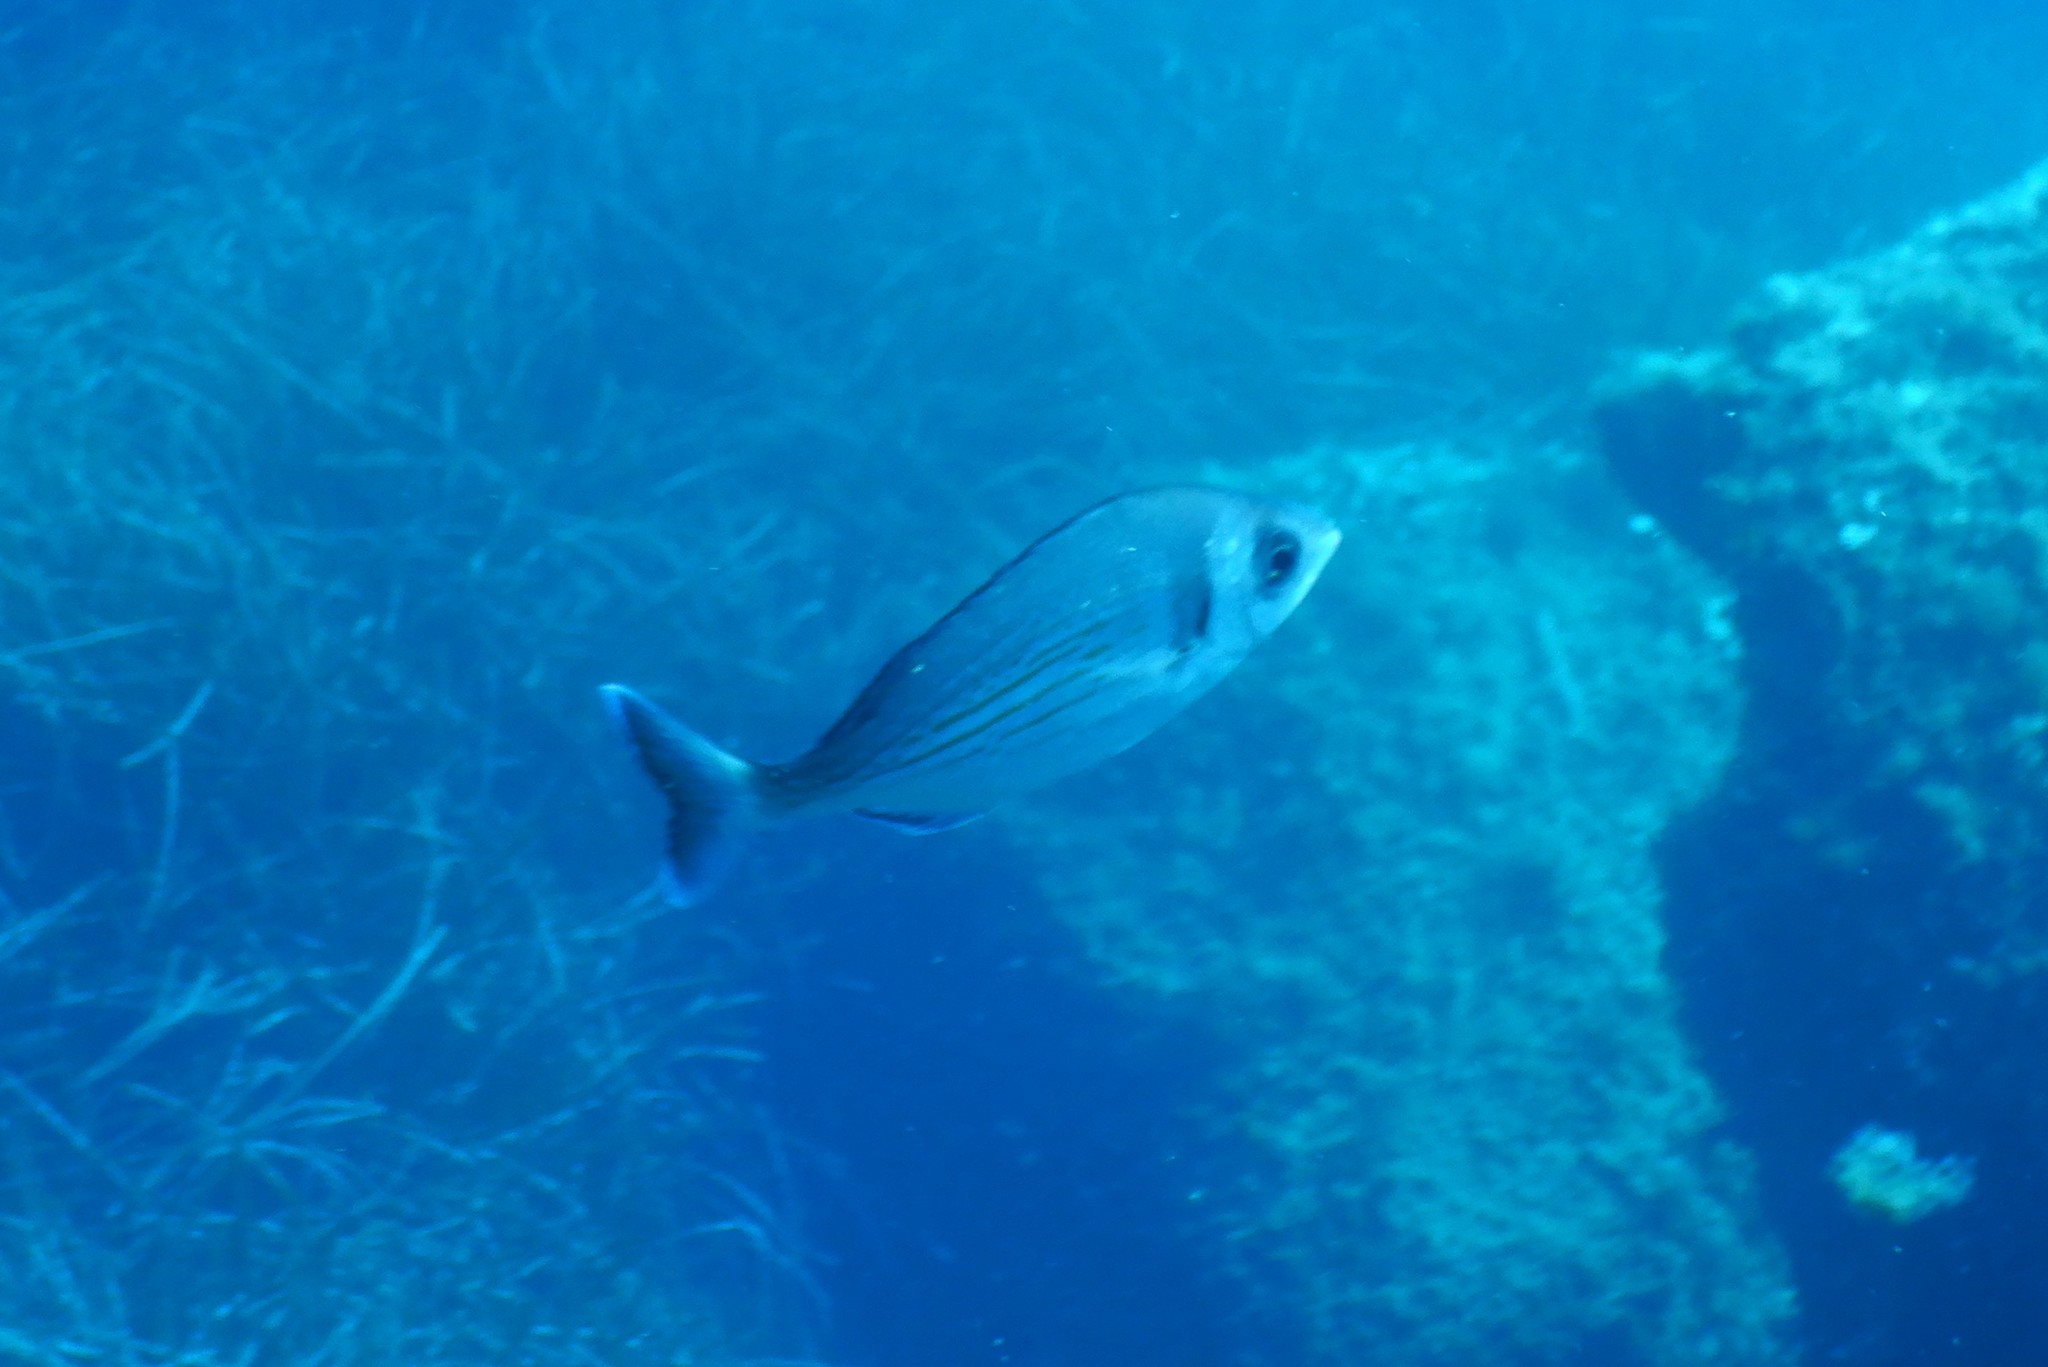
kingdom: Animalia
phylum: Chordata
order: Perciformes
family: Sparidae
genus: Spondyliosoma
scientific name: Spondyliosoma cantharus
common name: Black seabream
